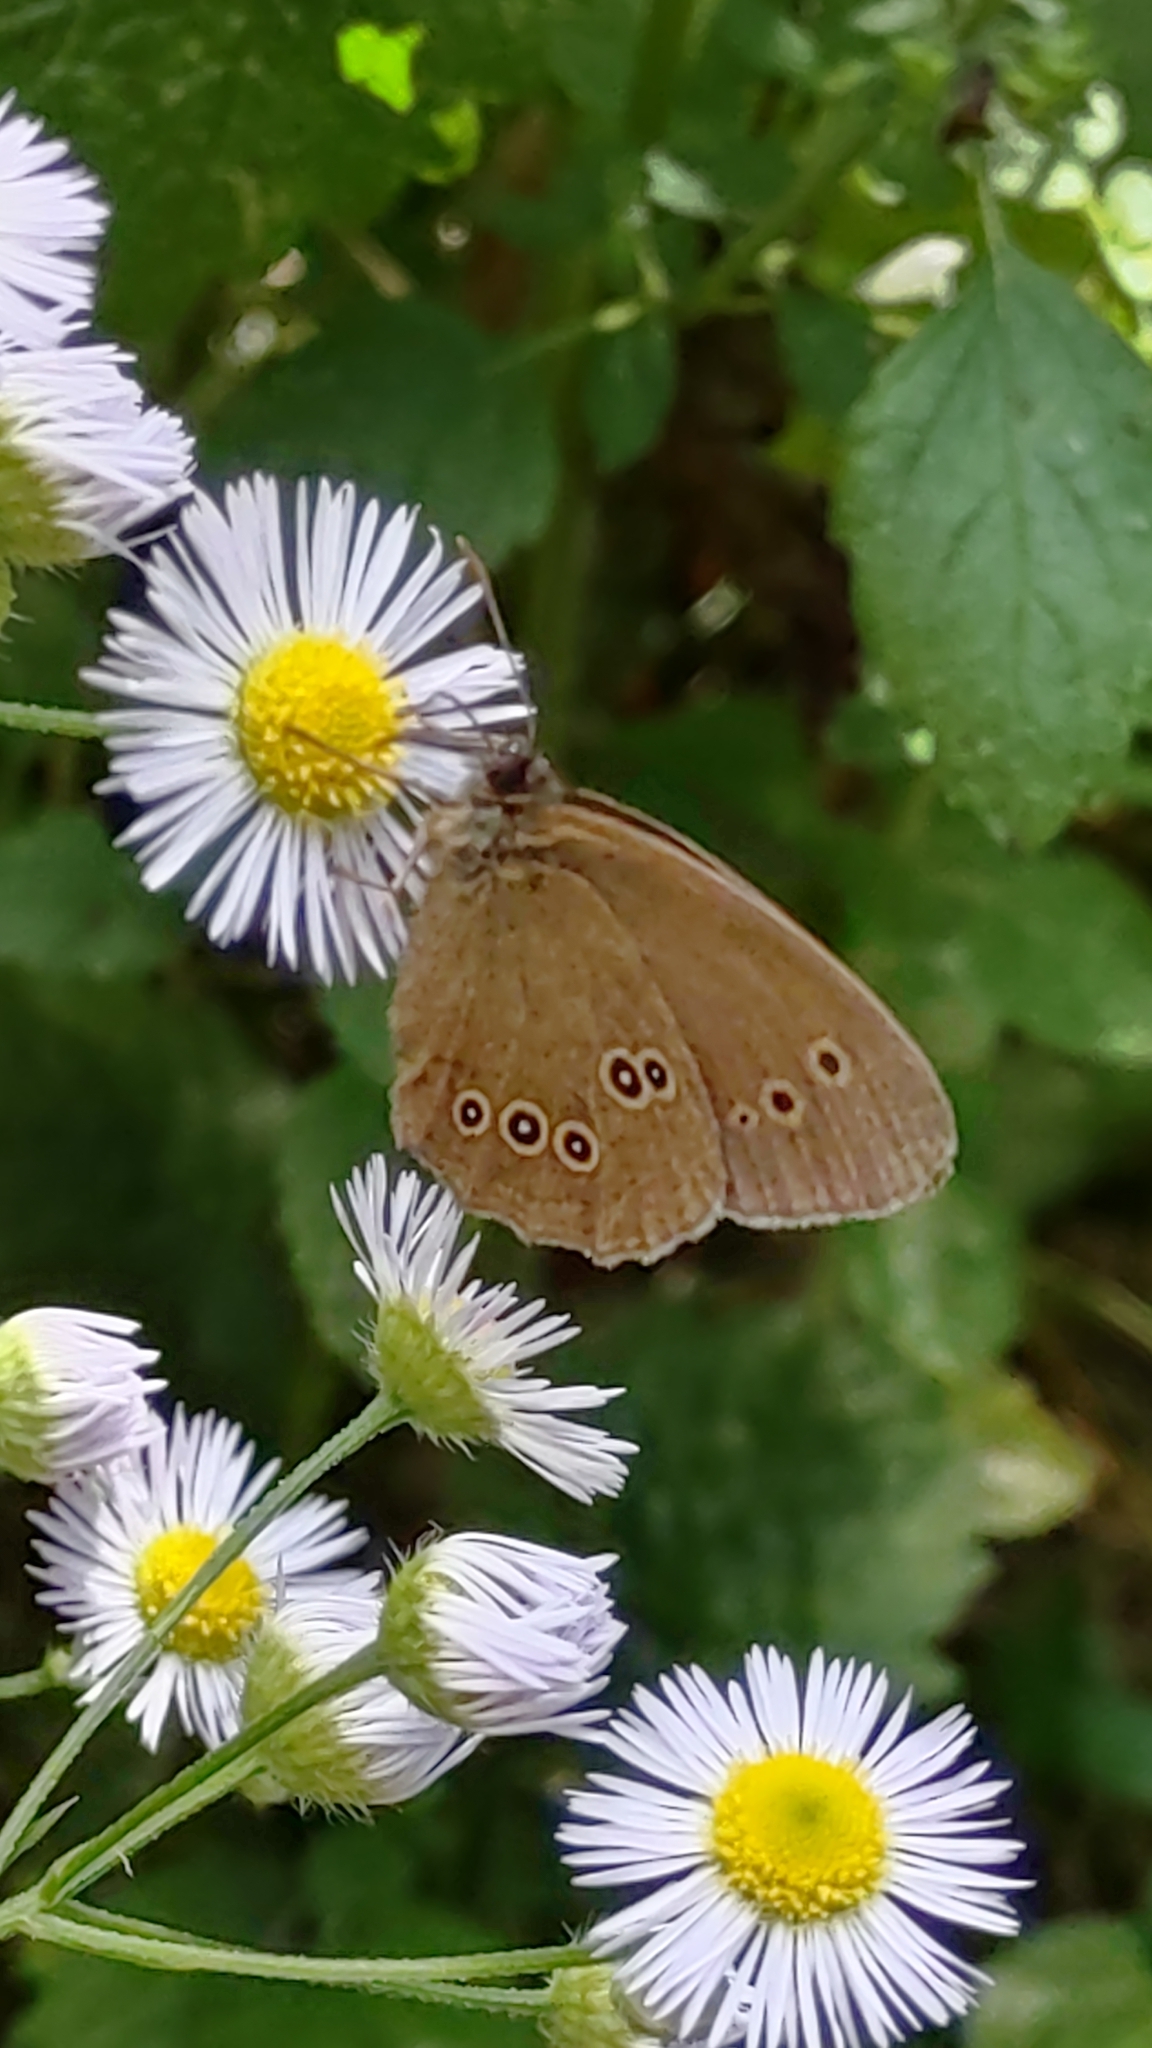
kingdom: Animalia
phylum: Arthropoda
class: Insecta
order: Lepidoptera
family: Nymphalidae
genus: Aphantopus
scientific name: Aphantopus hyperantus
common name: Ringlet
